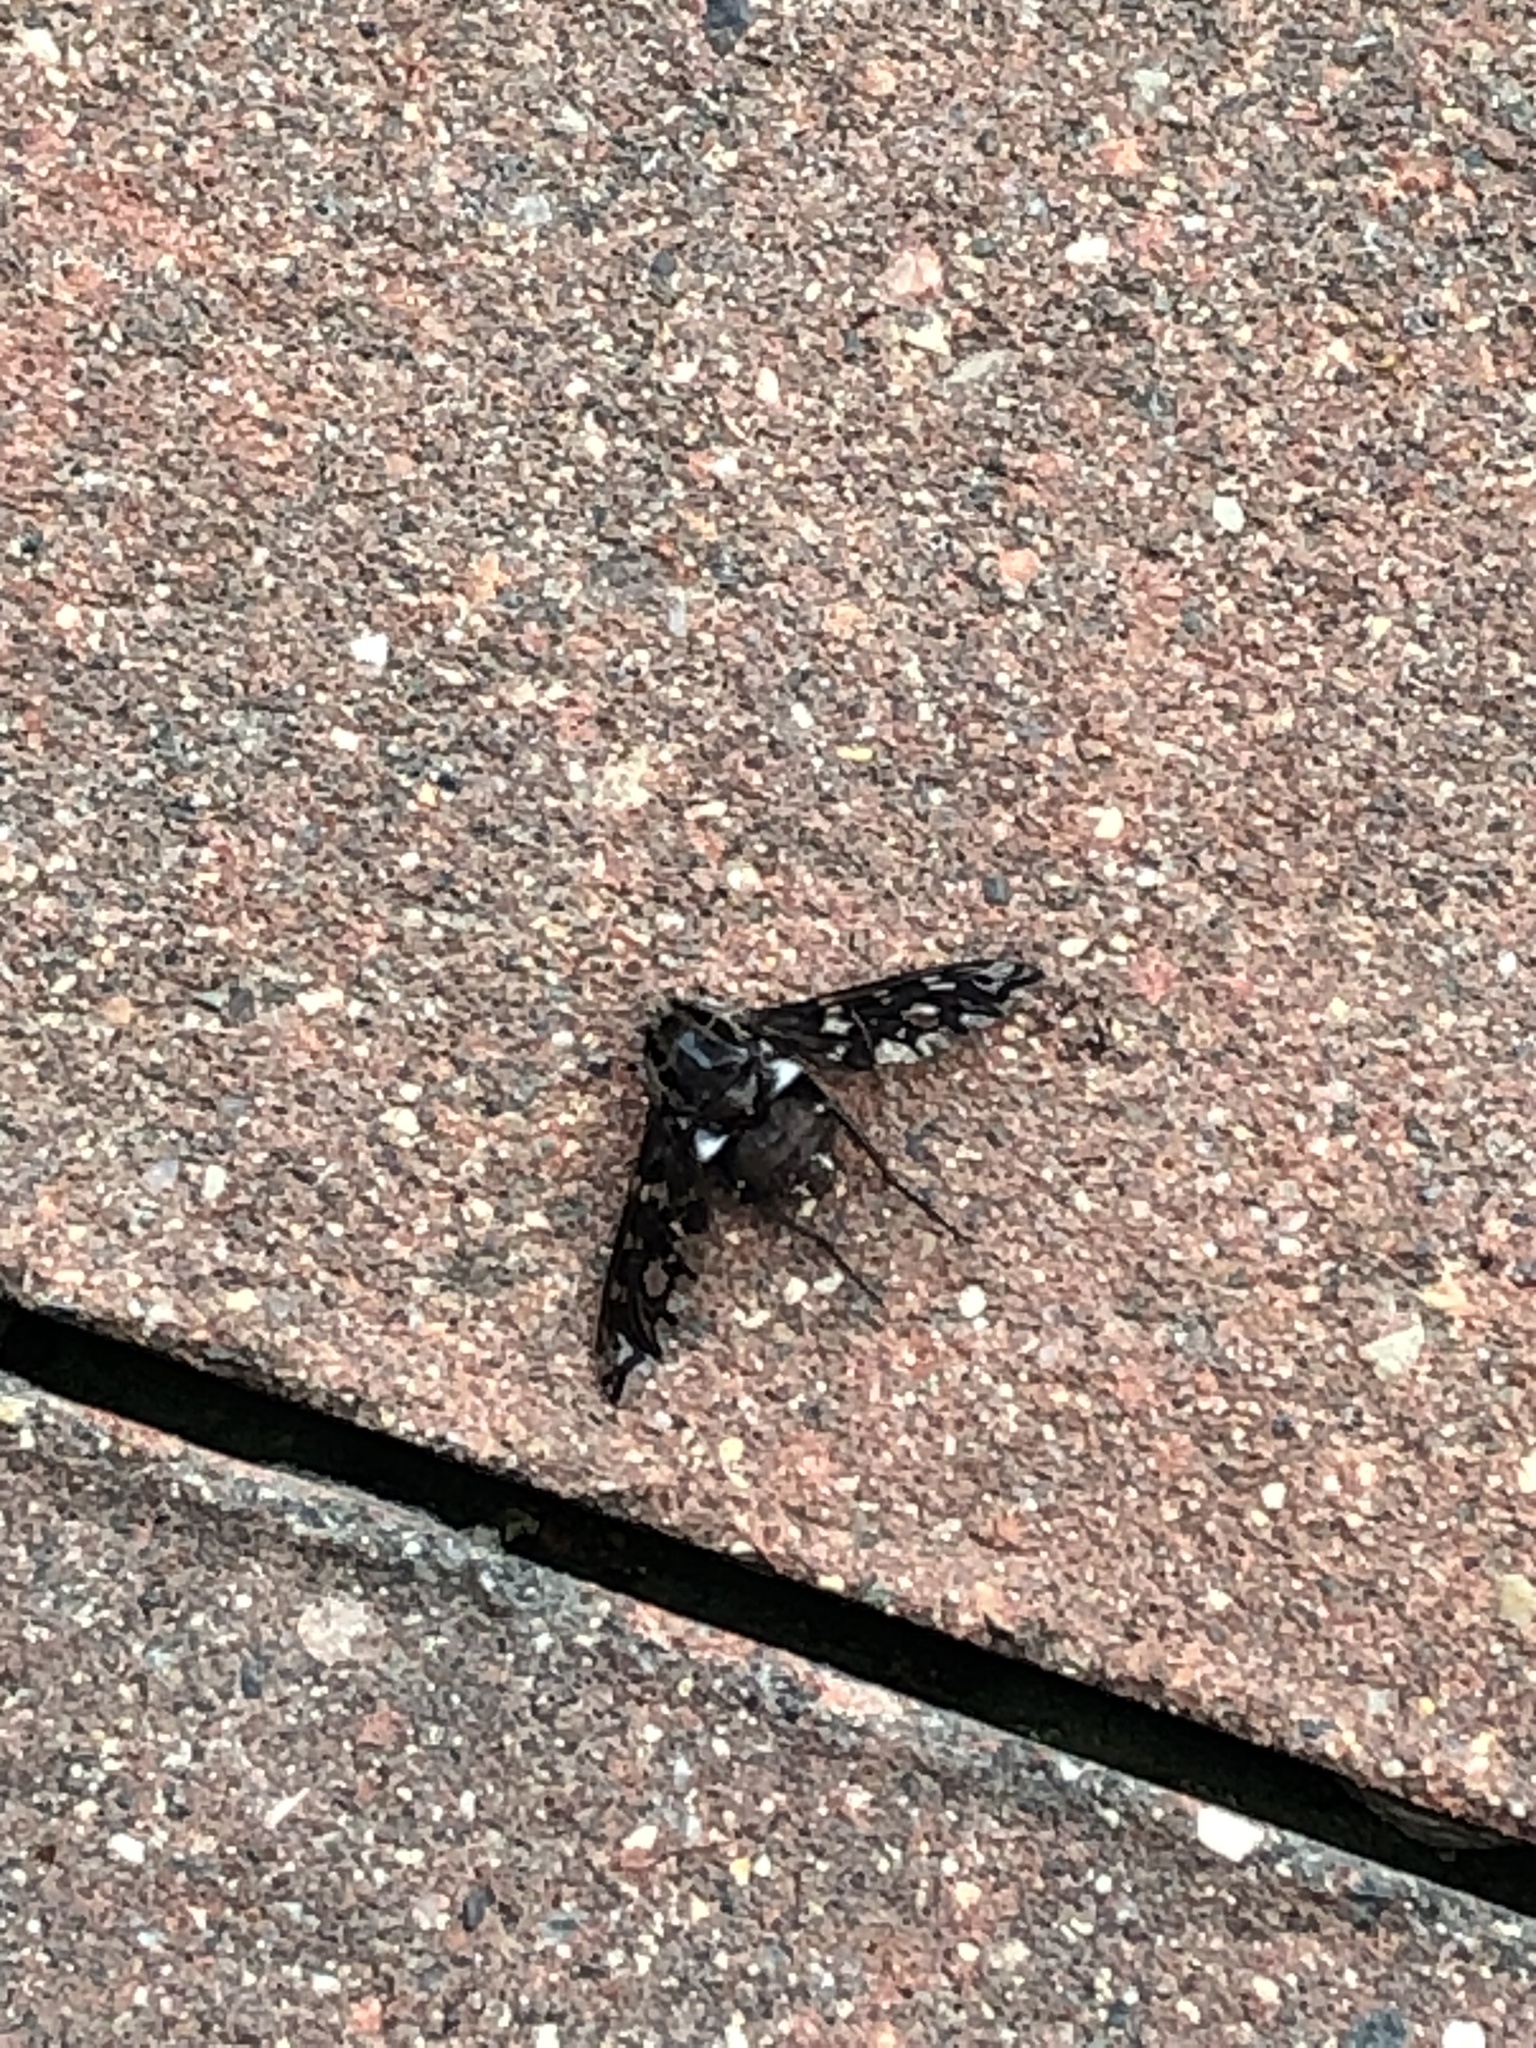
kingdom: Animalia
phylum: Arthropoda
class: Insecta
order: Diptera
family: Bombyliidae
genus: Xenox
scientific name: Xenox tigrinus
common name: Tiger bee fly
